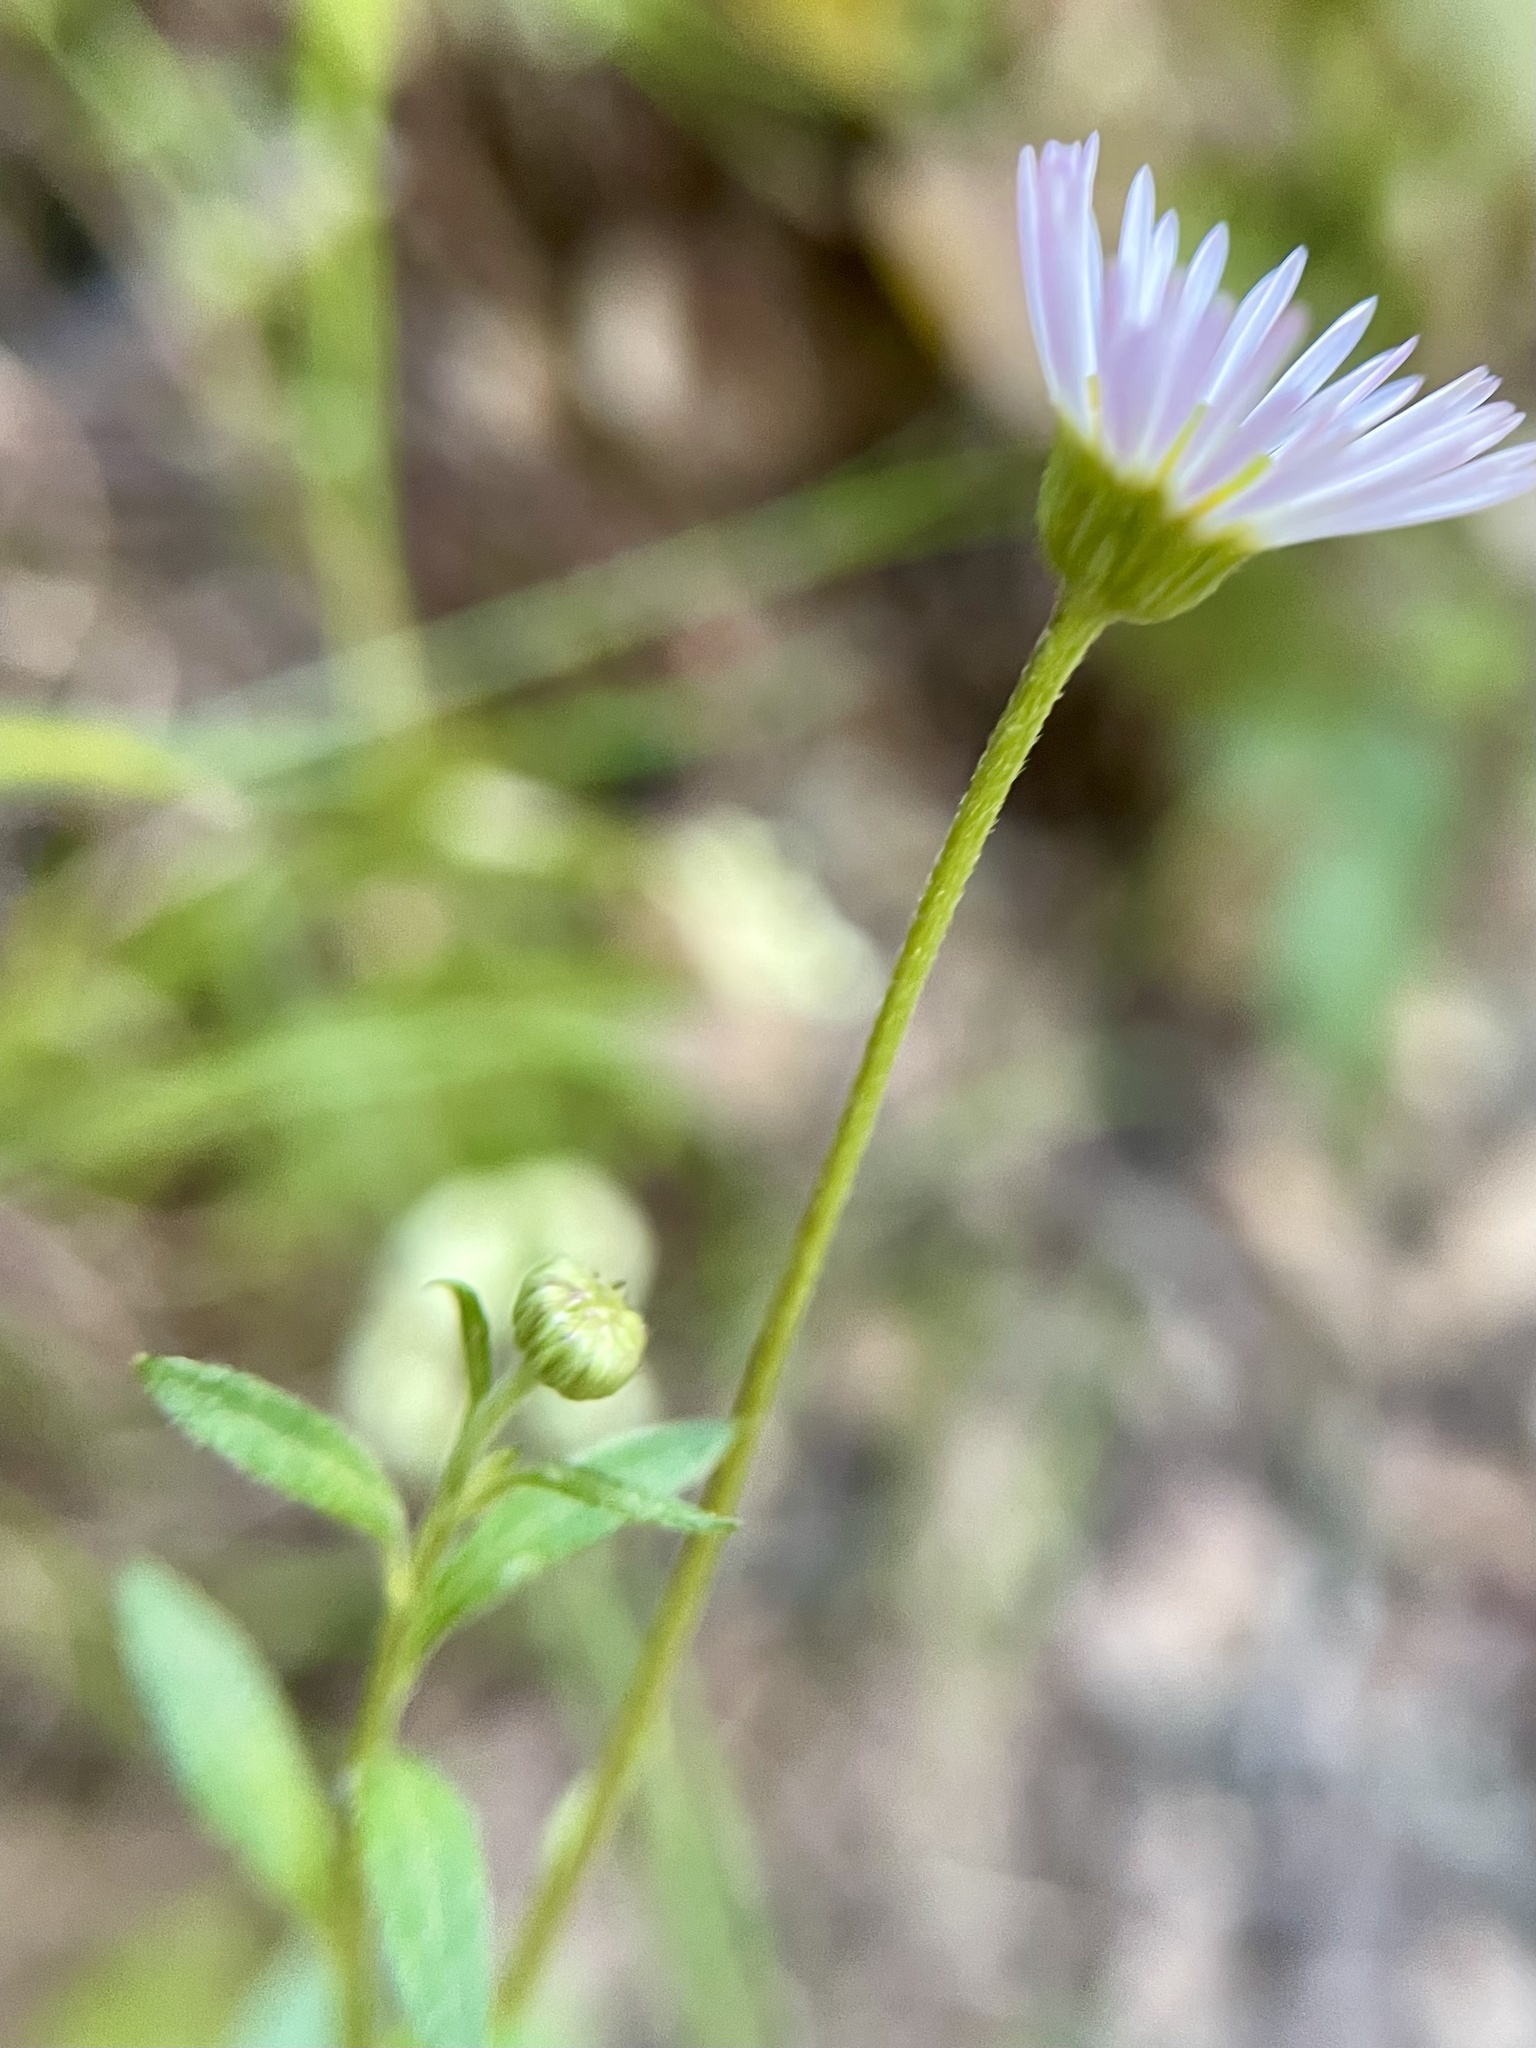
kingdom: Plantae
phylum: Tracheophyta
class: Magnoliopsida
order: Asterales
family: Asteraceae
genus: Erigeron
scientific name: Erigeron karvinskianus
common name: Mexican fleabane
